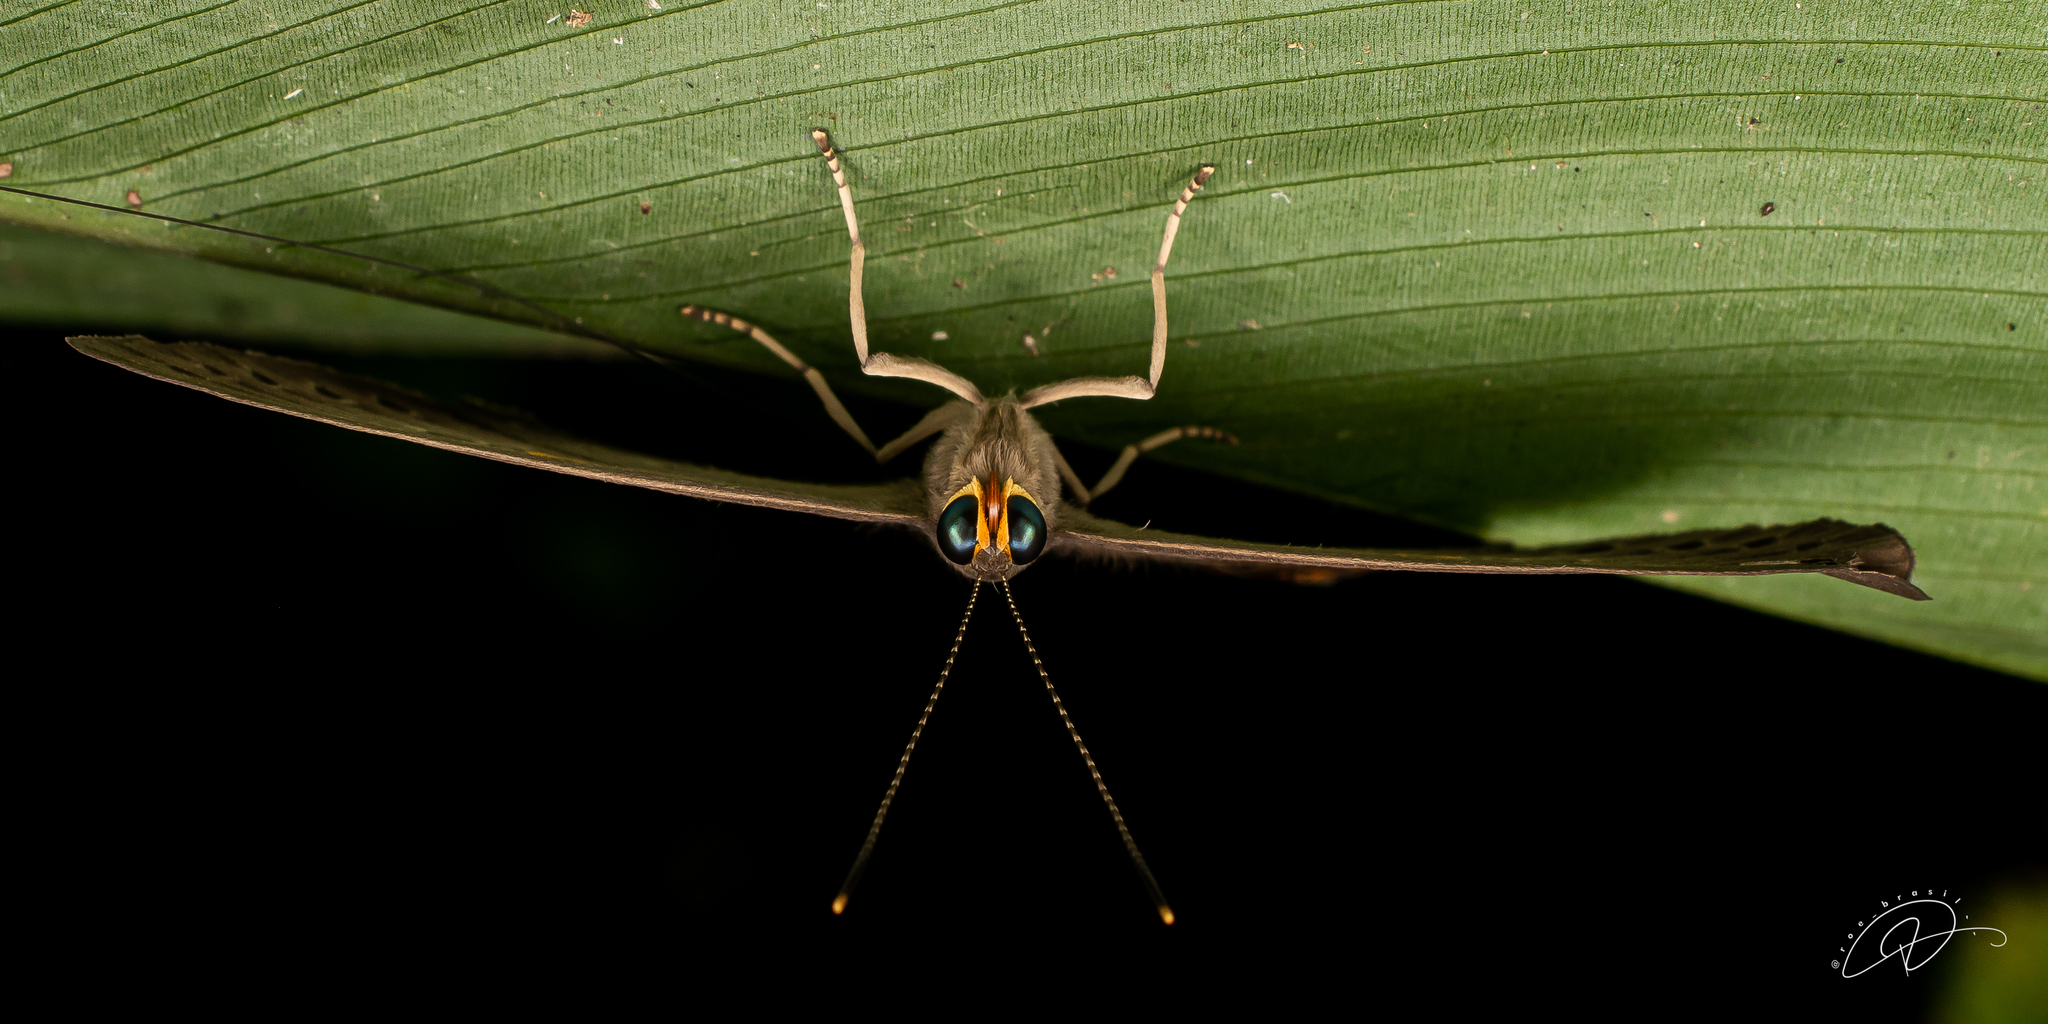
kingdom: Animalia
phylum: Cnidaria
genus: Eurybia
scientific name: Eurybia pergaea
